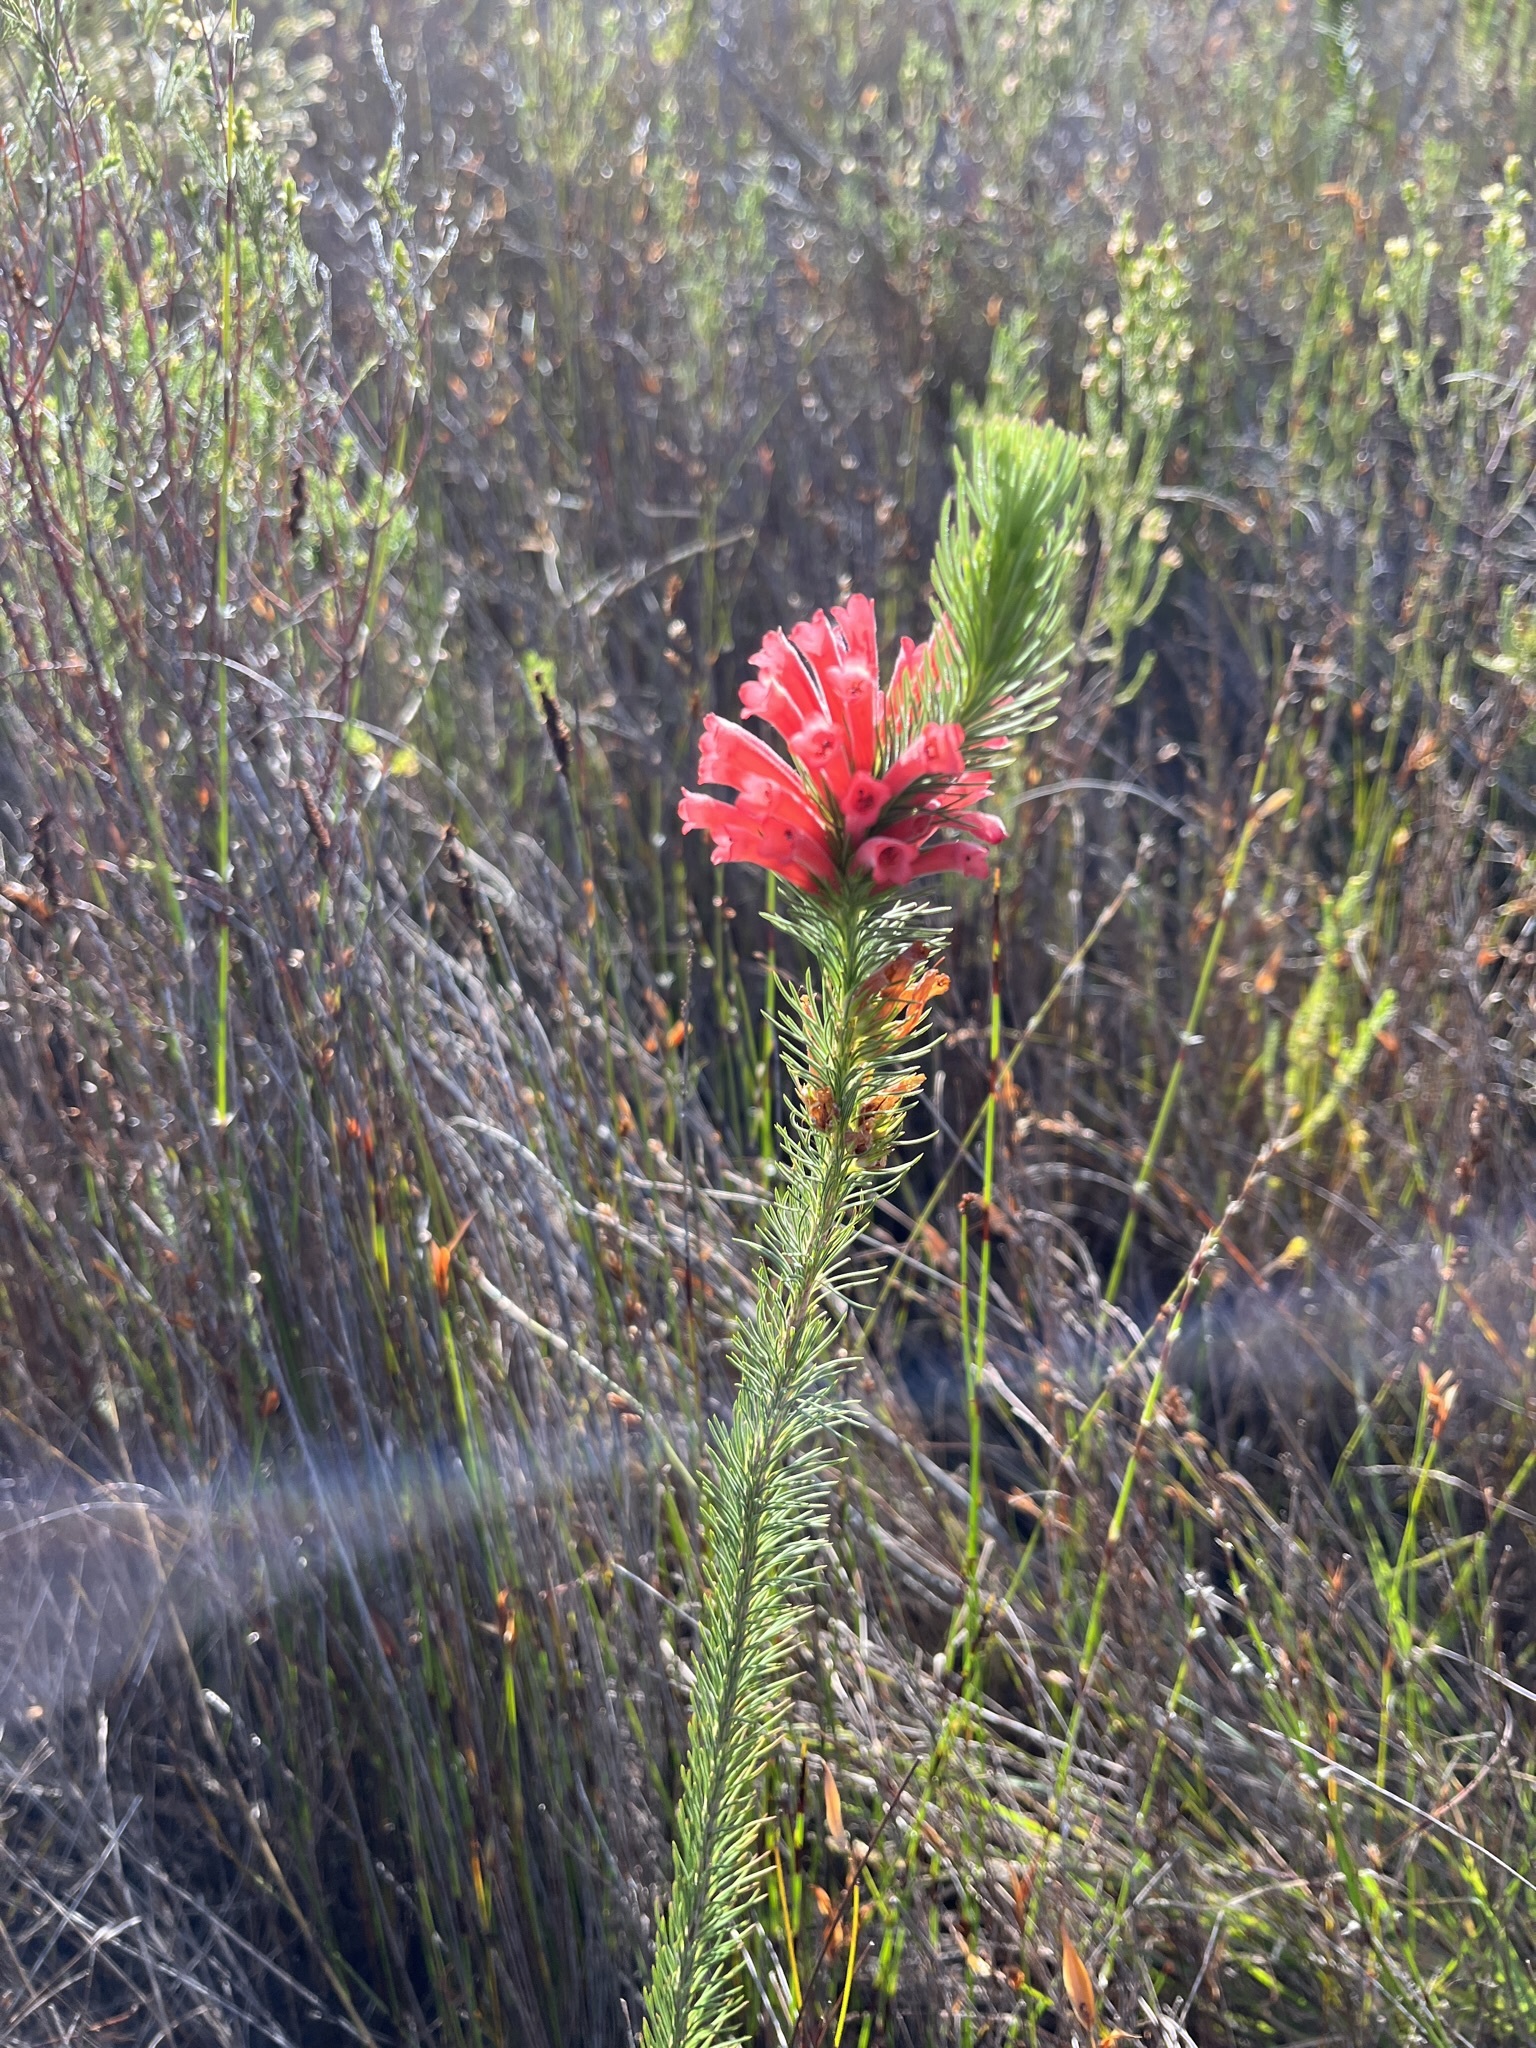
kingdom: Plantae
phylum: Tracheophyta
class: Magnoliopsida
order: Ericales
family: Ericaceae
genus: Erica
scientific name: Erica vestita
